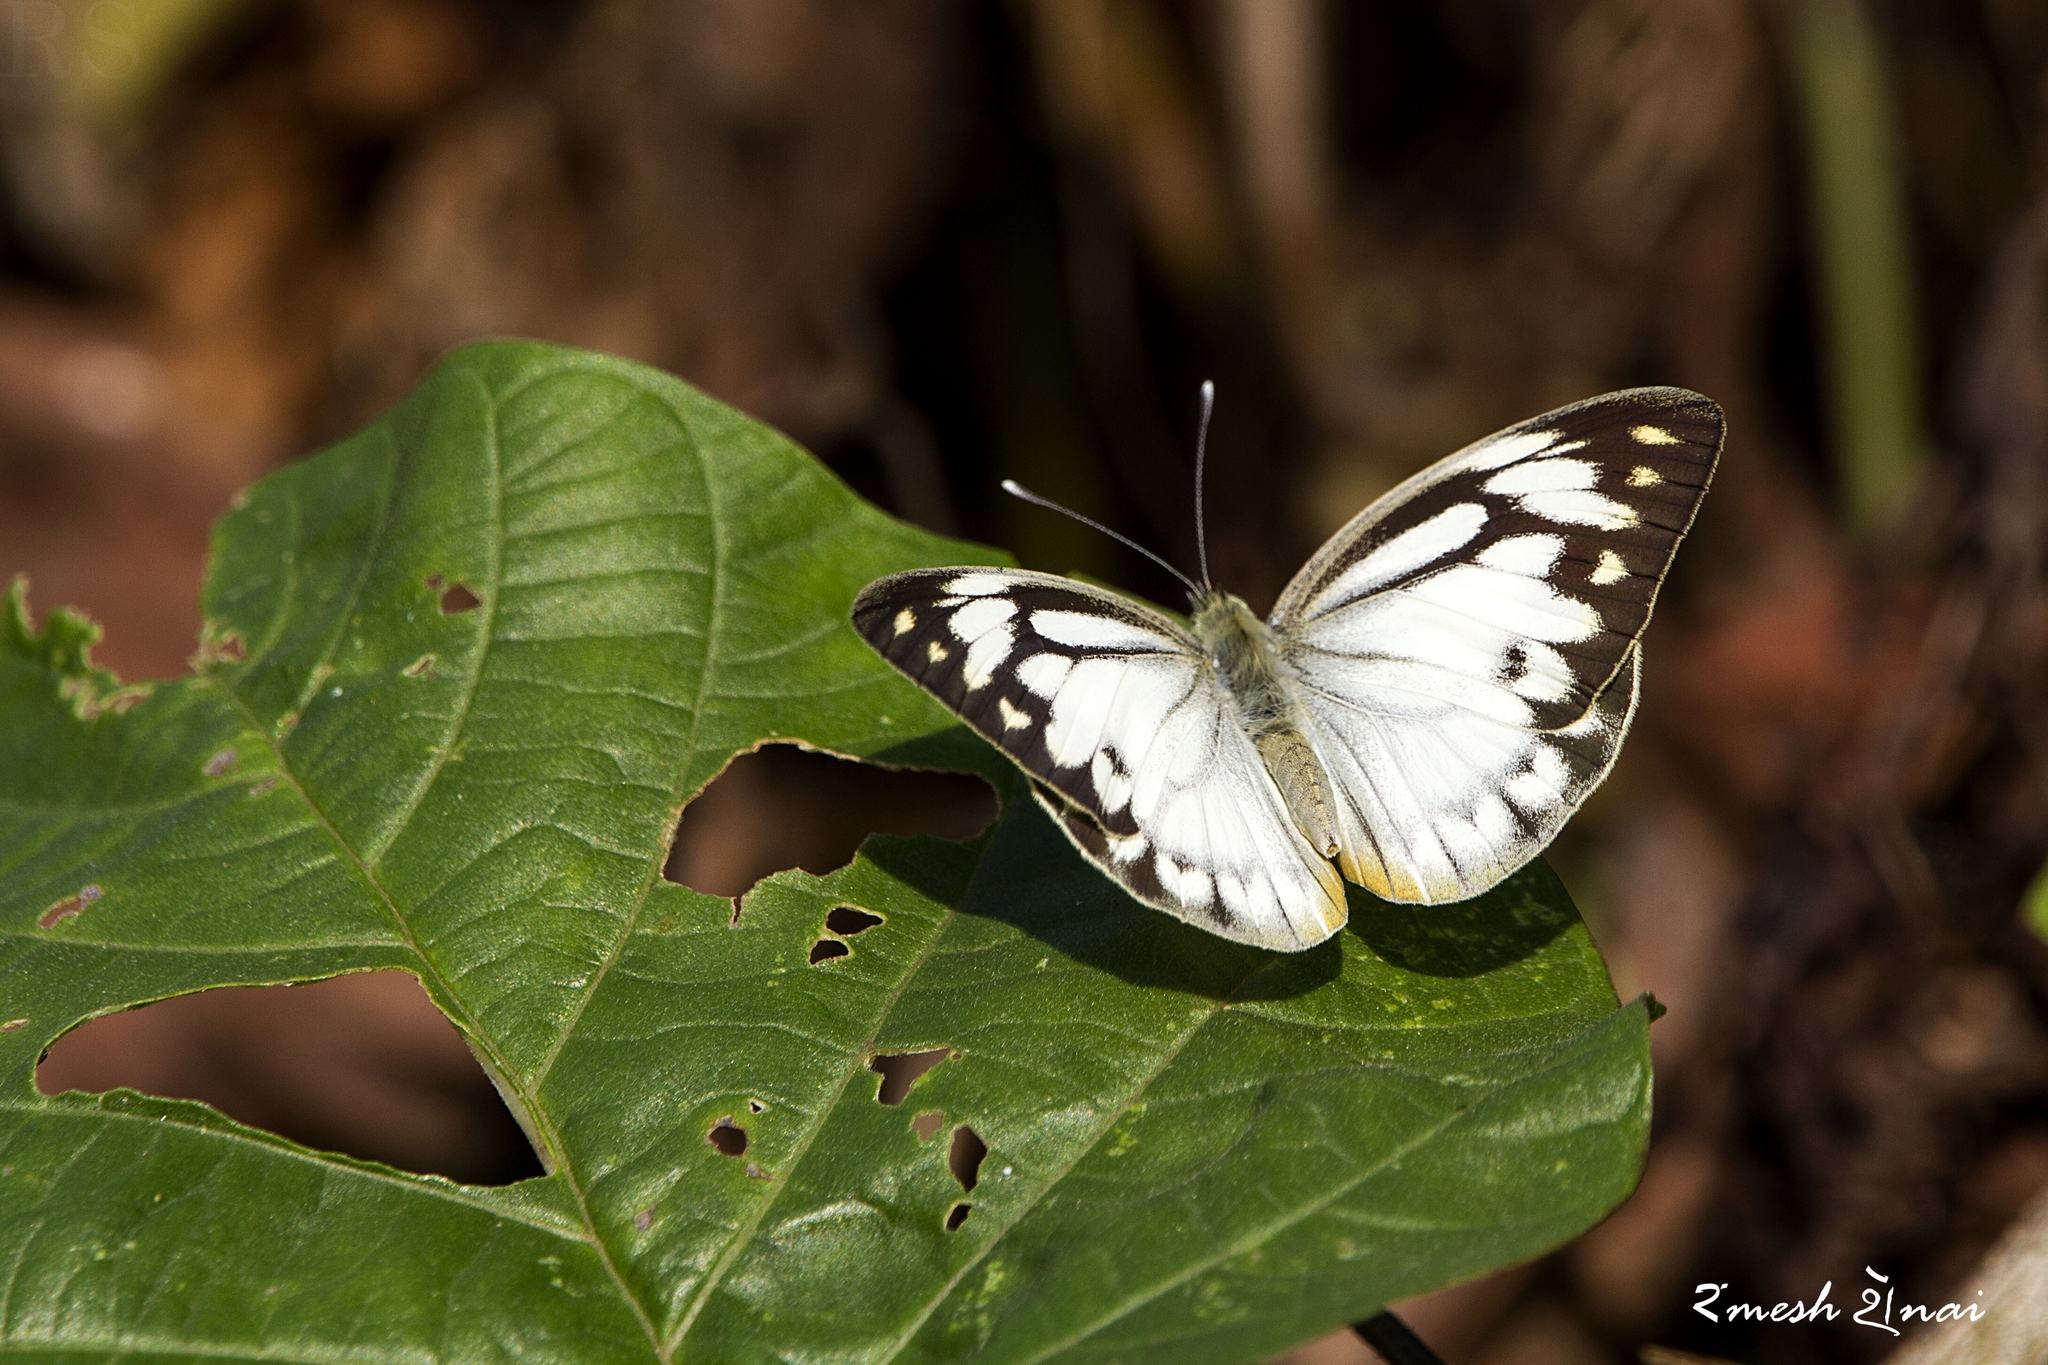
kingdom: Animalia
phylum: Arthropoda
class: Insecta
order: Lepidoptera
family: Pieridae
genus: Cepora
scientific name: Cepora nerissa
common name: Common gull
